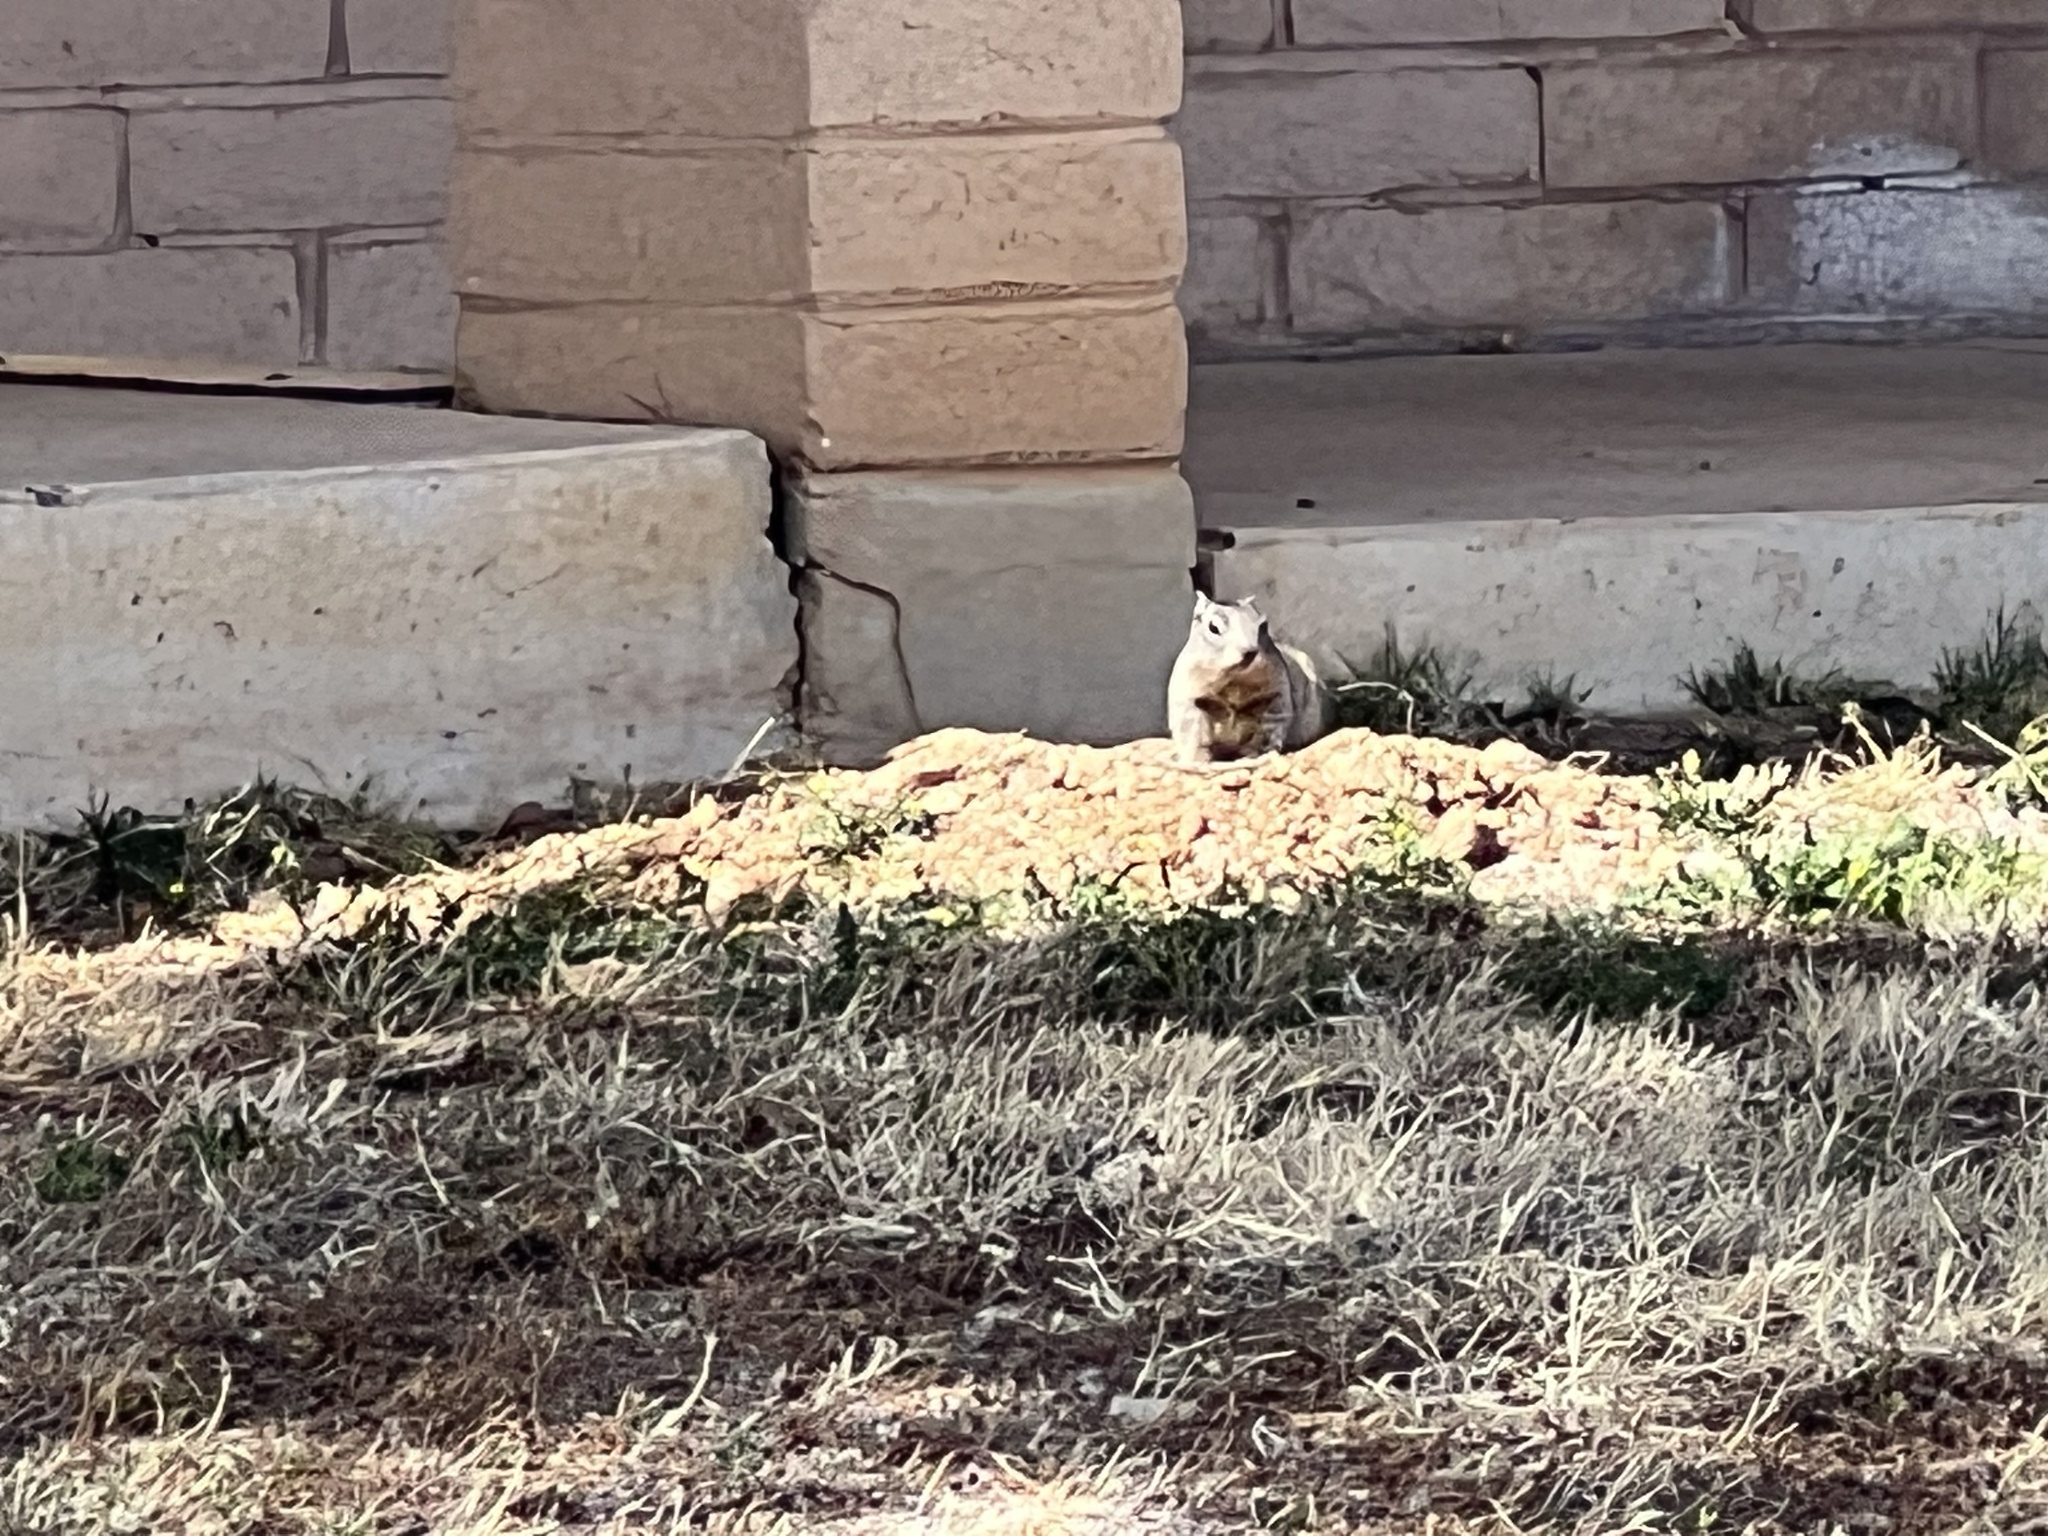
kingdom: Animalia
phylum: Chordata
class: Mammalia
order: Rodentia
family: Sciuridae
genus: Otospermophilus
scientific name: Otospermophilus variegatus
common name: Rock squirrel
